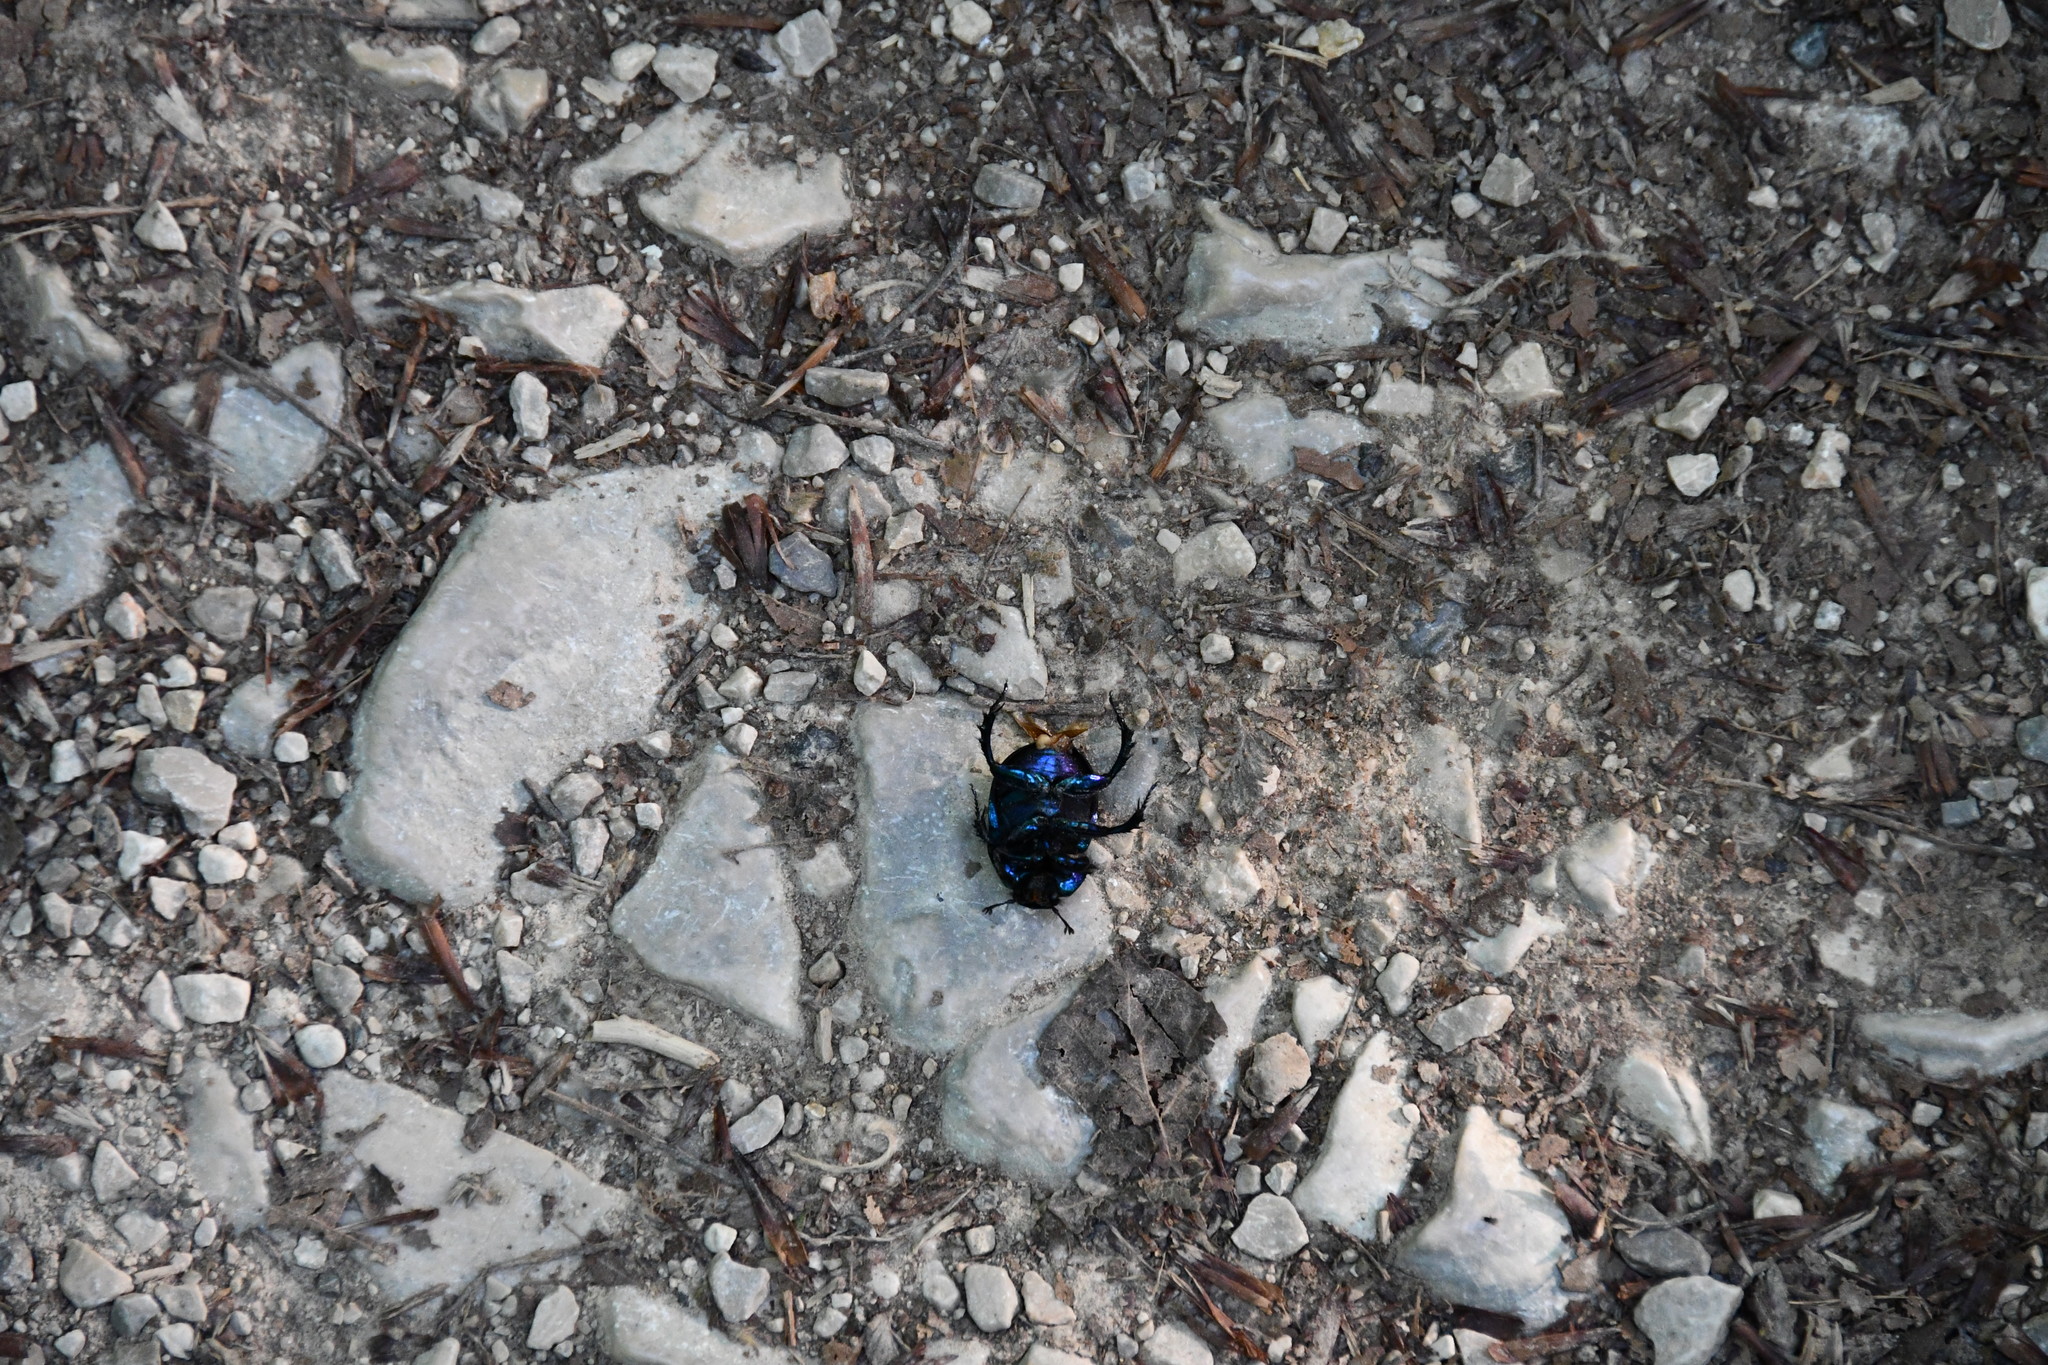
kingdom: Animalia
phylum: Arthropoda
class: Insecta
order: Coleoptera
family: Geotrupidae
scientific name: Geotrupidae
